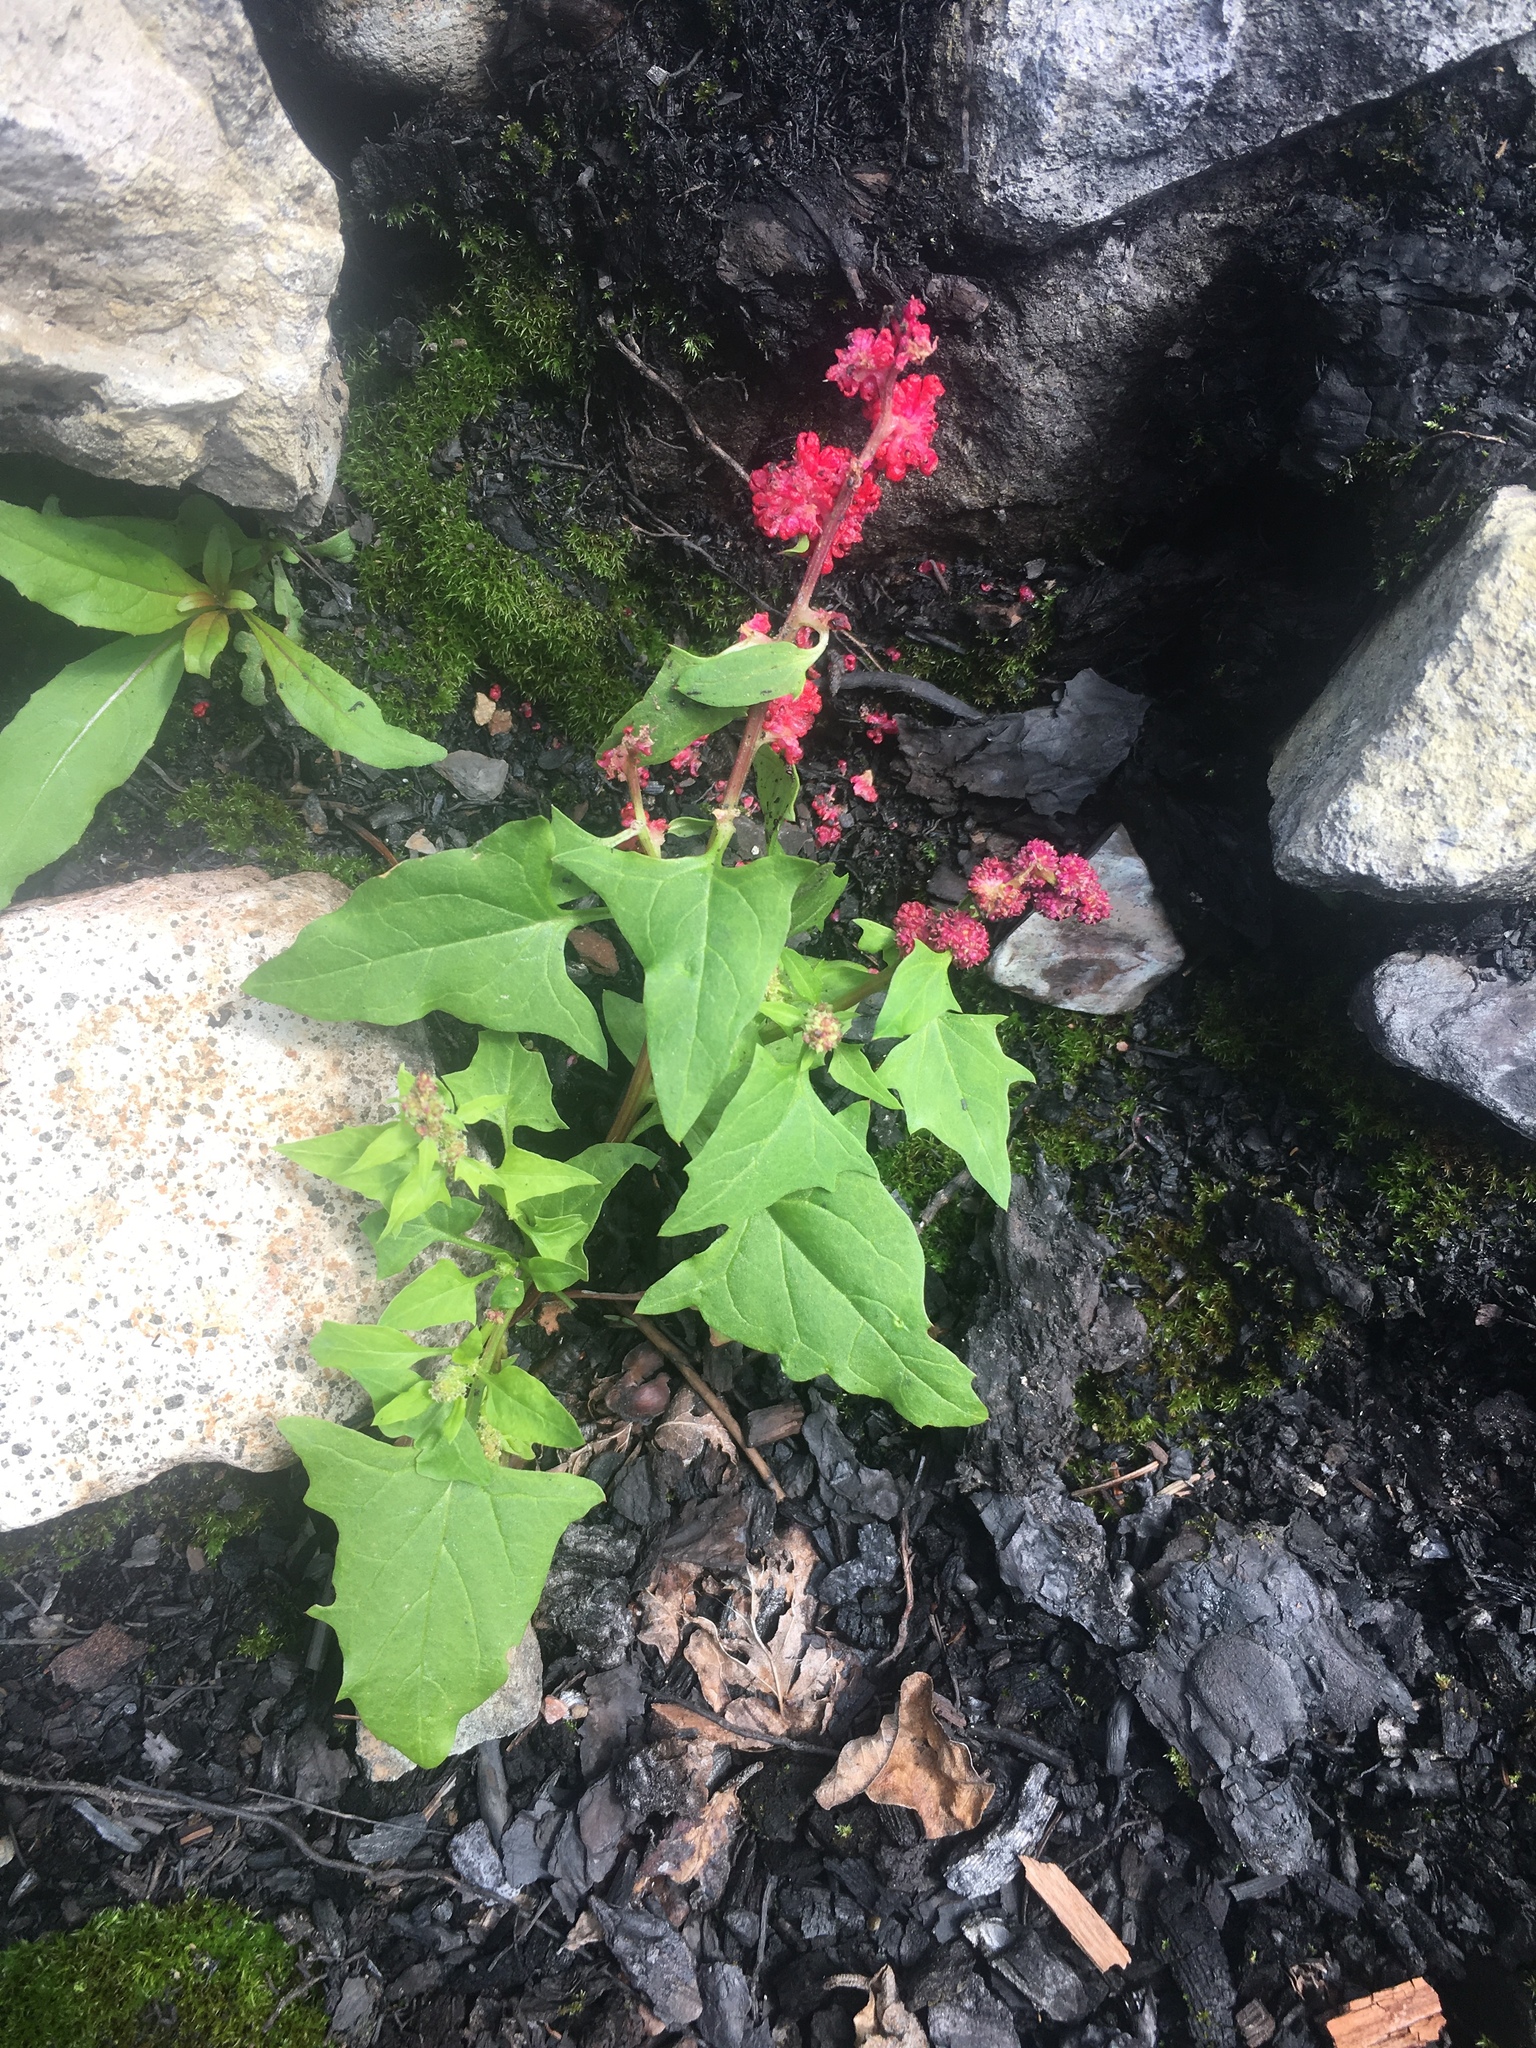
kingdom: Plantae
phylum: Tracheophyta
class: Magnoliopsida
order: Caryophyllales
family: Amaranthaceae
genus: Blitum
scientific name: Blitum capitatum
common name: Strawberry-blight
